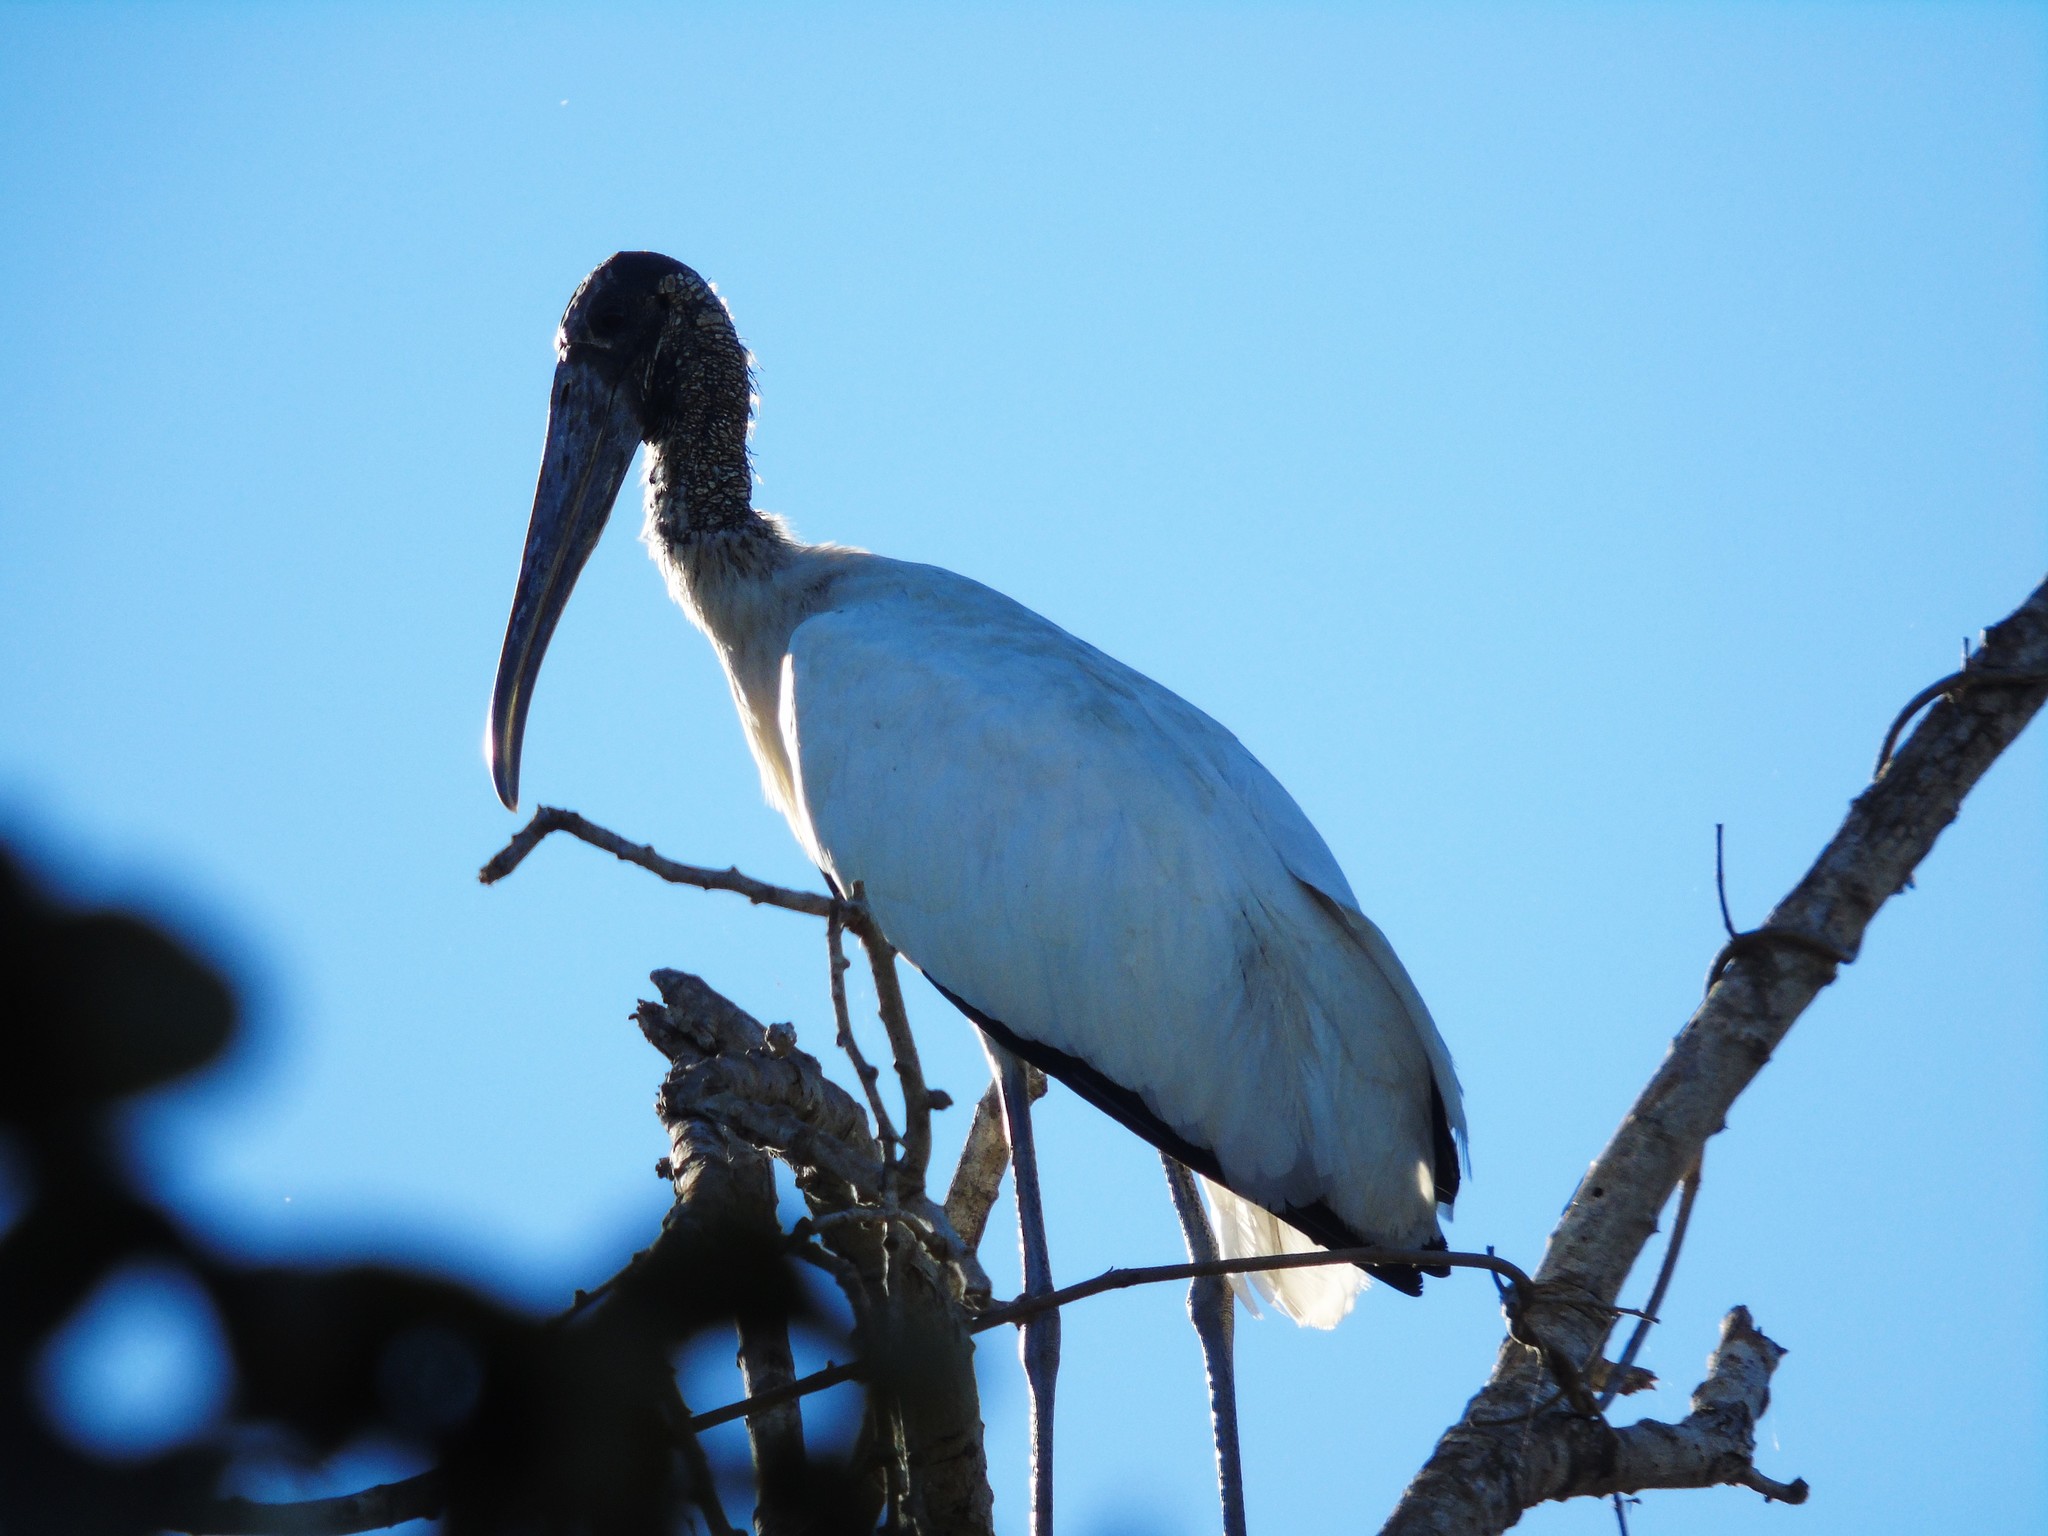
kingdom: Animalia
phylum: Chordata
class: Aves
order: Ciconiiformes
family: Ciconiidae
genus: Mycteria
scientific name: Mycteria americana
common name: Wood stork
